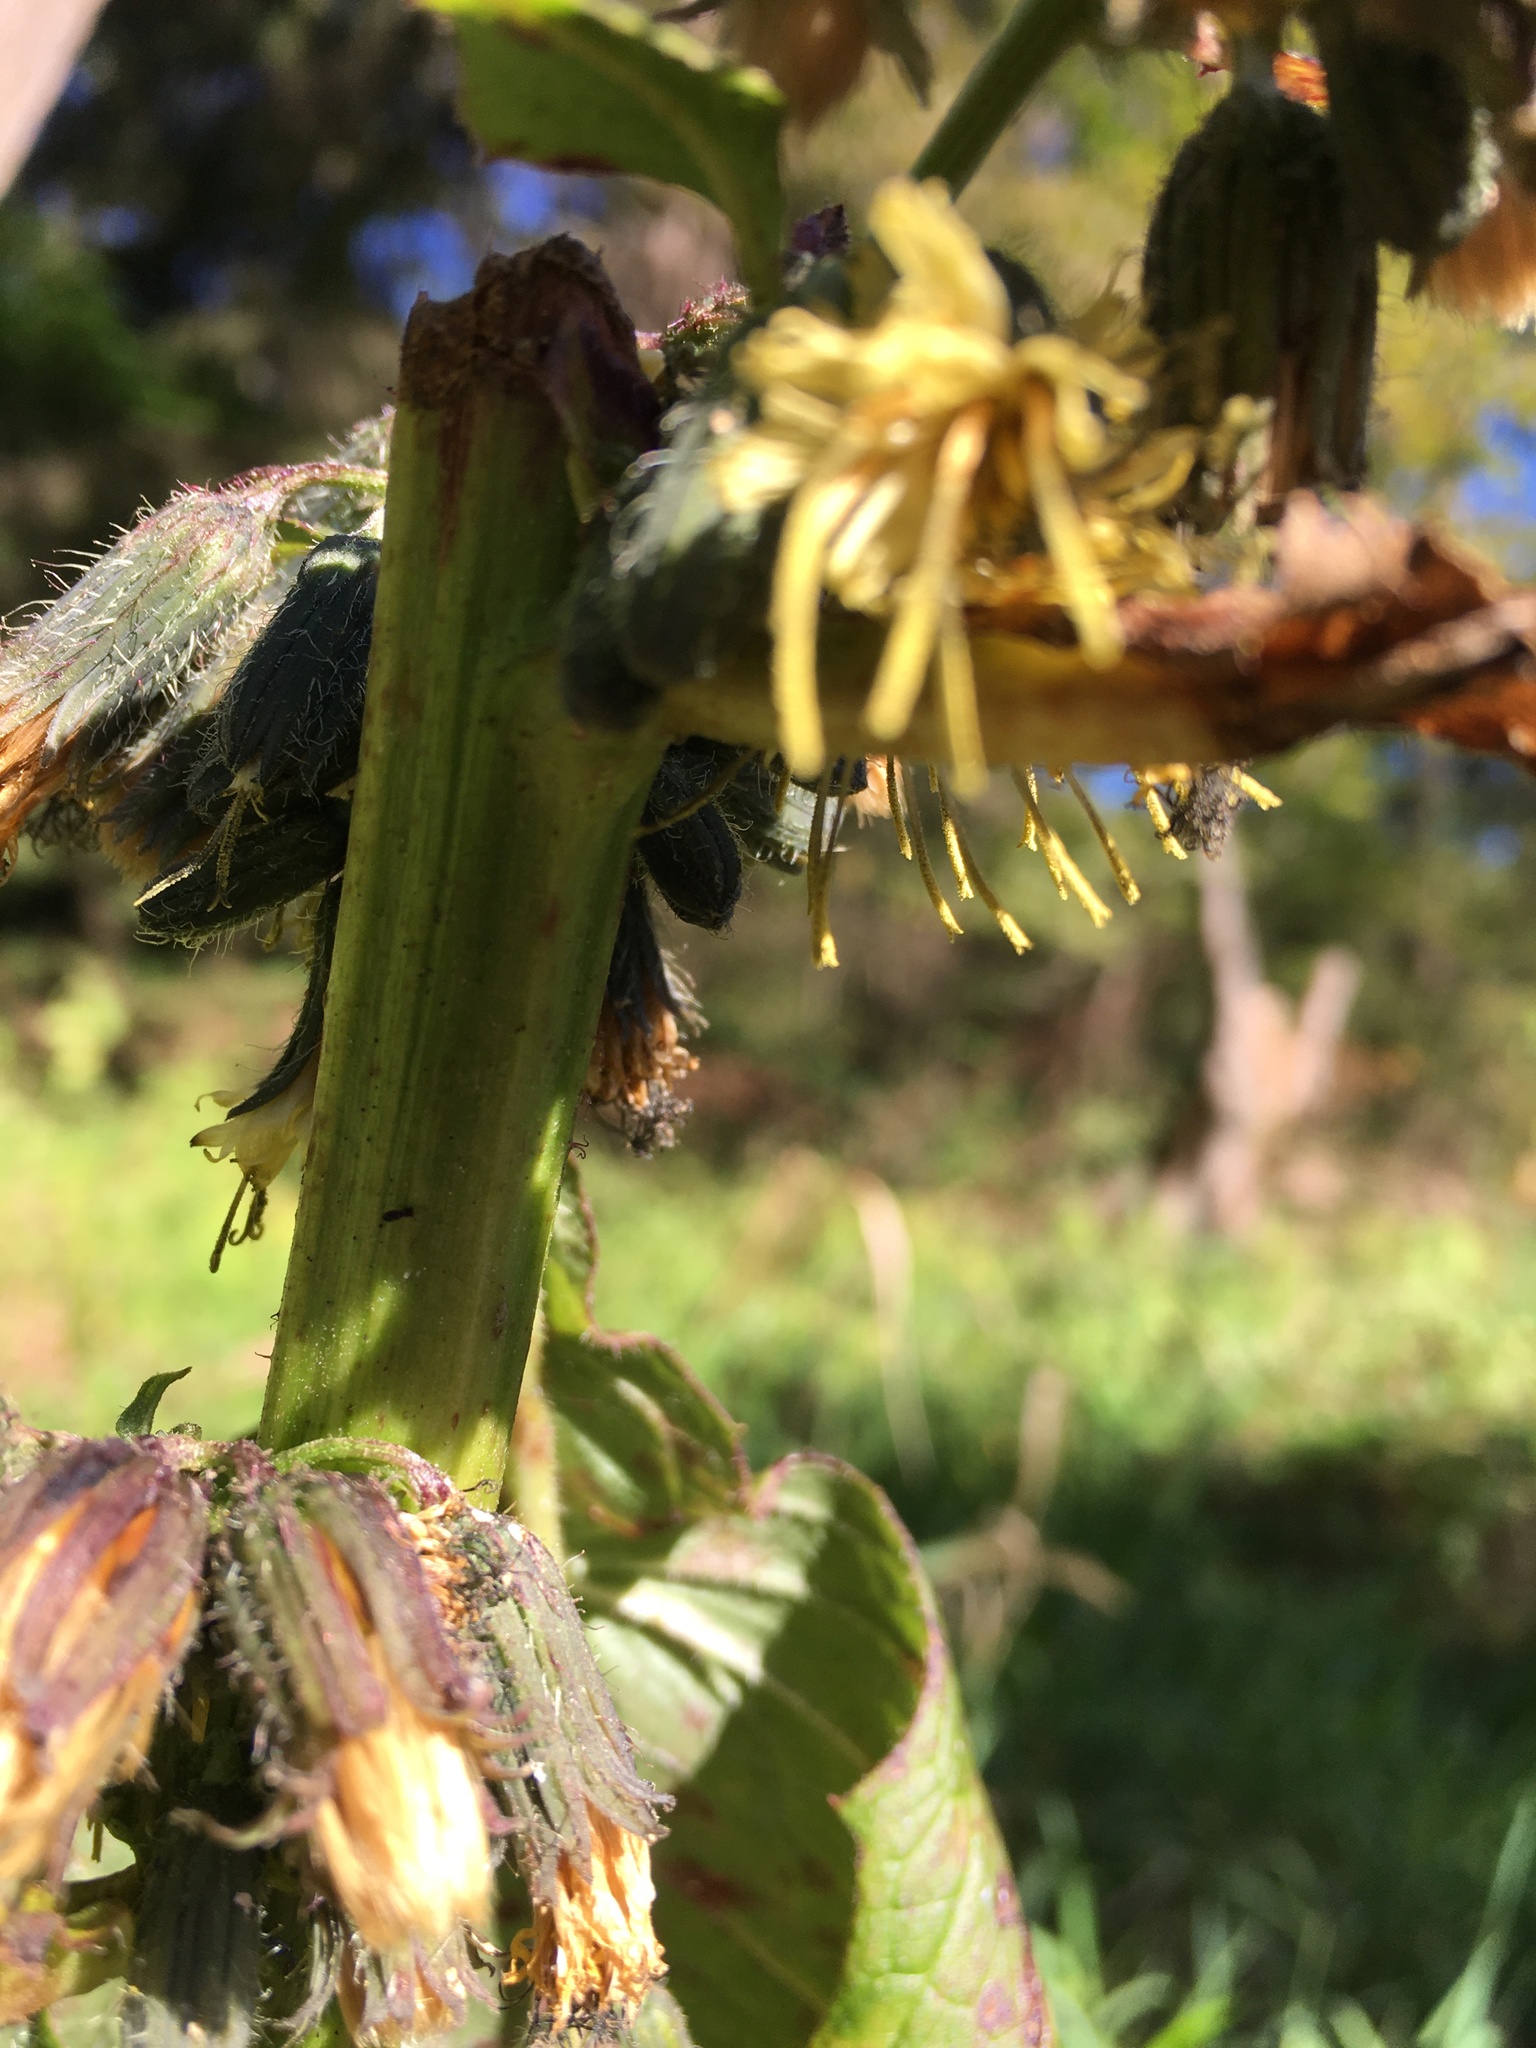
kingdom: Plantae
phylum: Tracheophyta
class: Magnoliopsida
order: Asterales
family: Asteraceae
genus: Nabalus
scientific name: Nabalus crepidineus
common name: Nodding rattlesnakeroot
